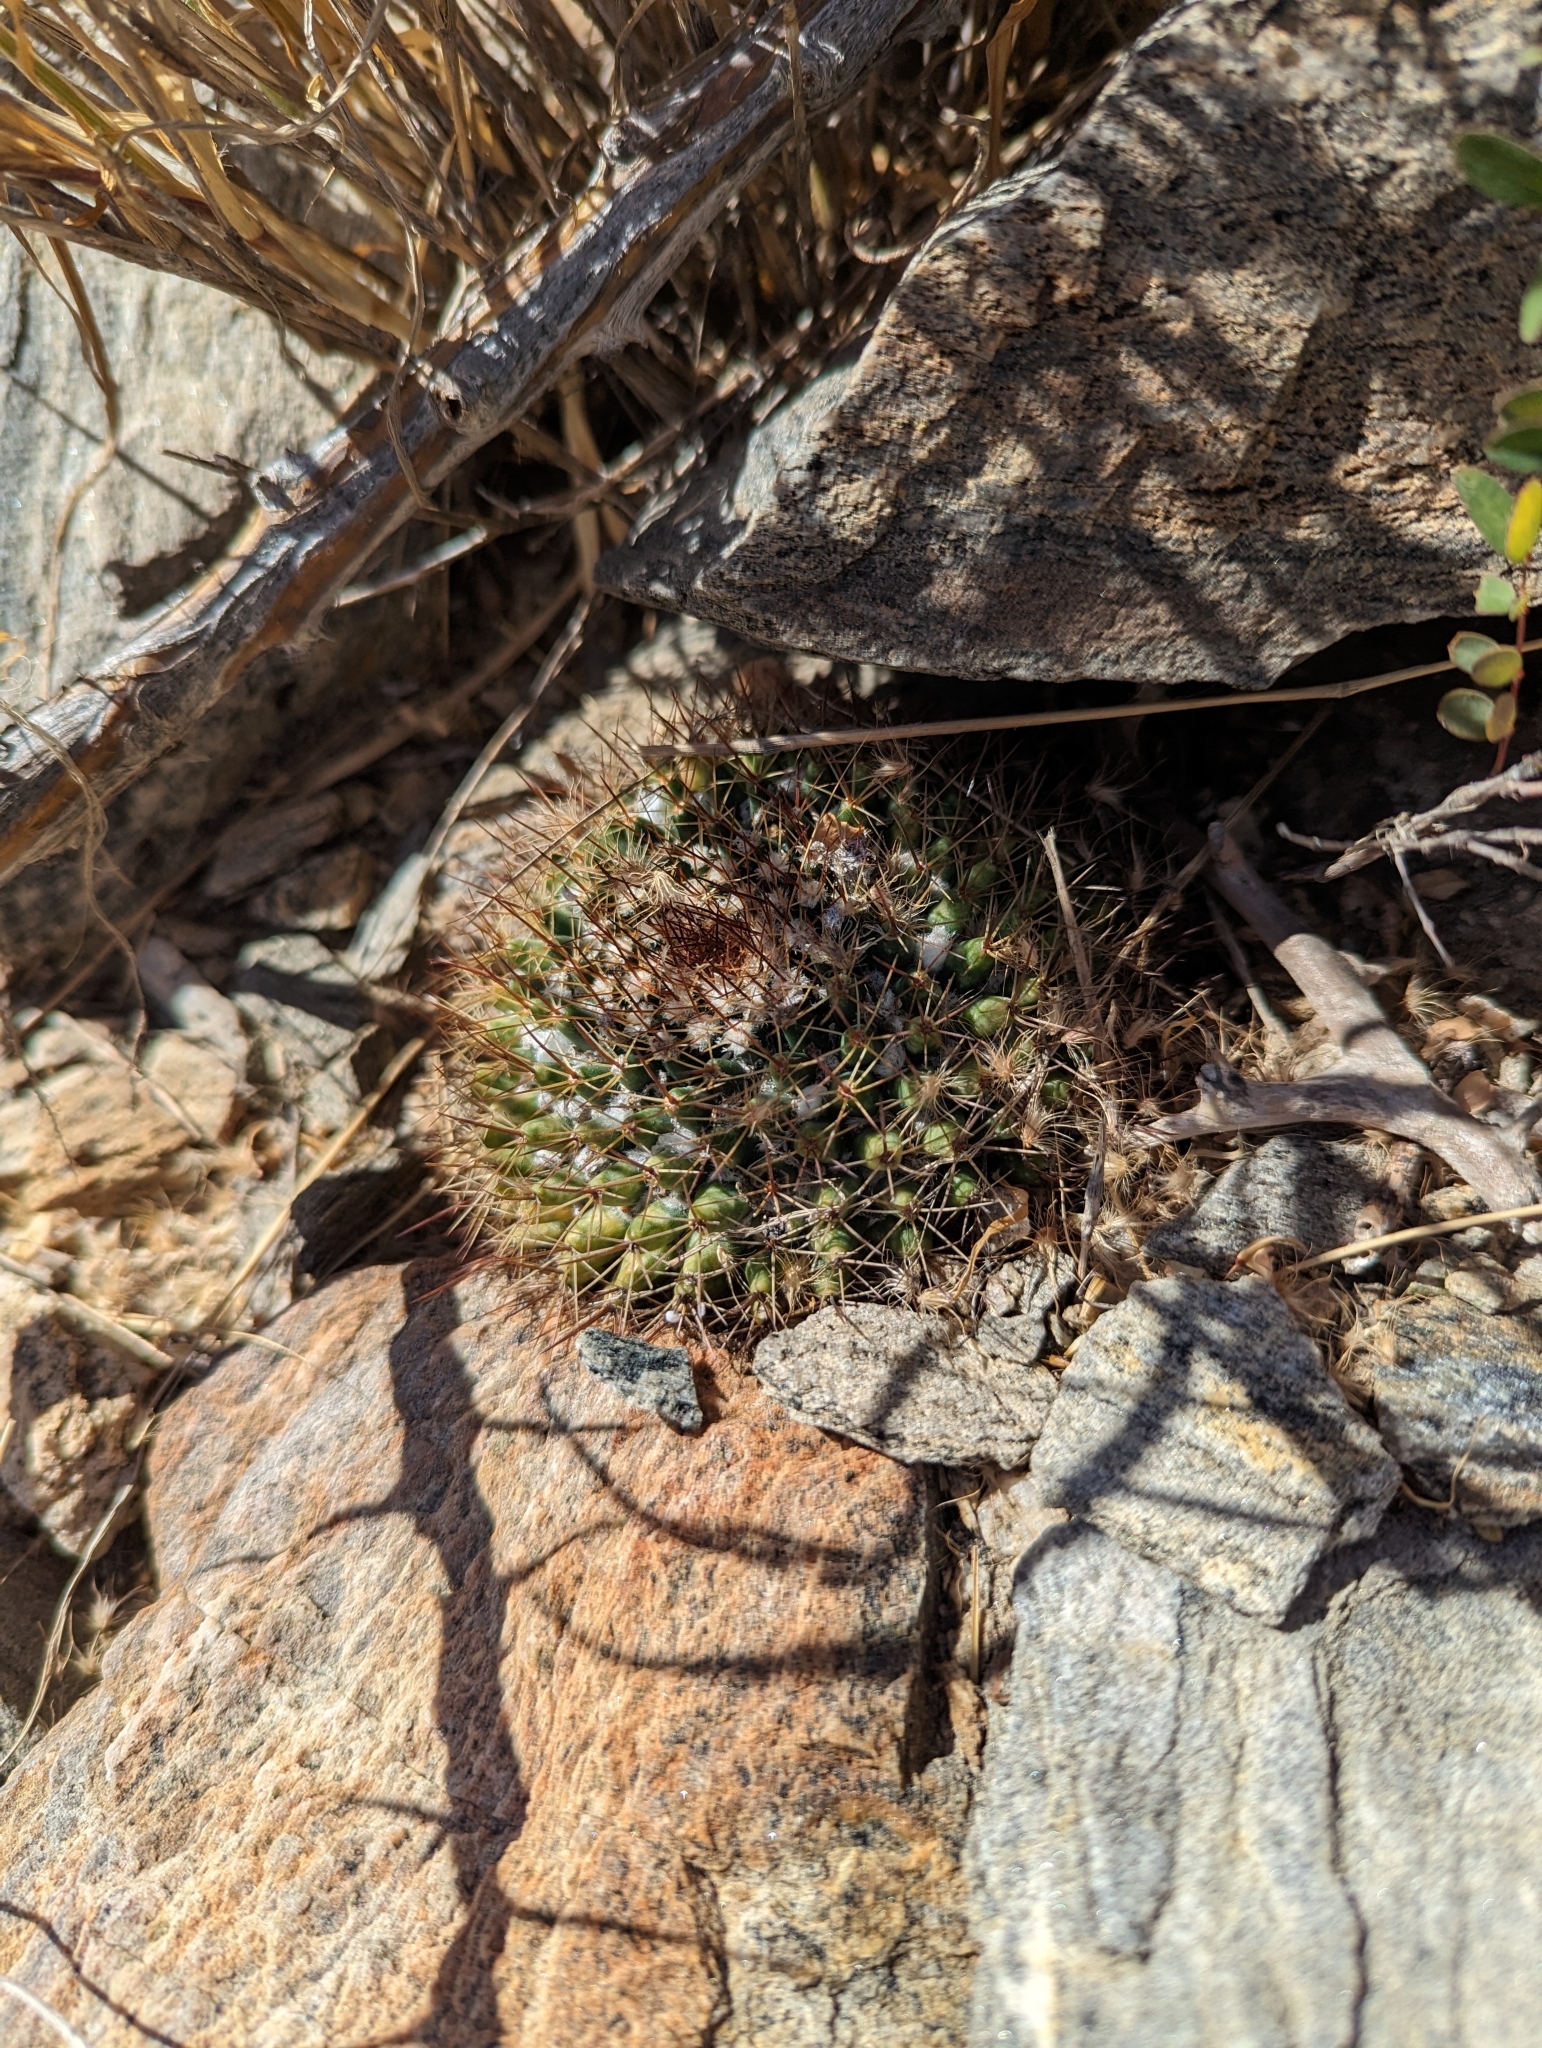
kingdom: Plantae
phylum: Tracheophyta
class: Magnoliopsida
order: Caryophyllales
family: Cactaceae
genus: Mammillaria
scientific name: Mammillaria petrophila
